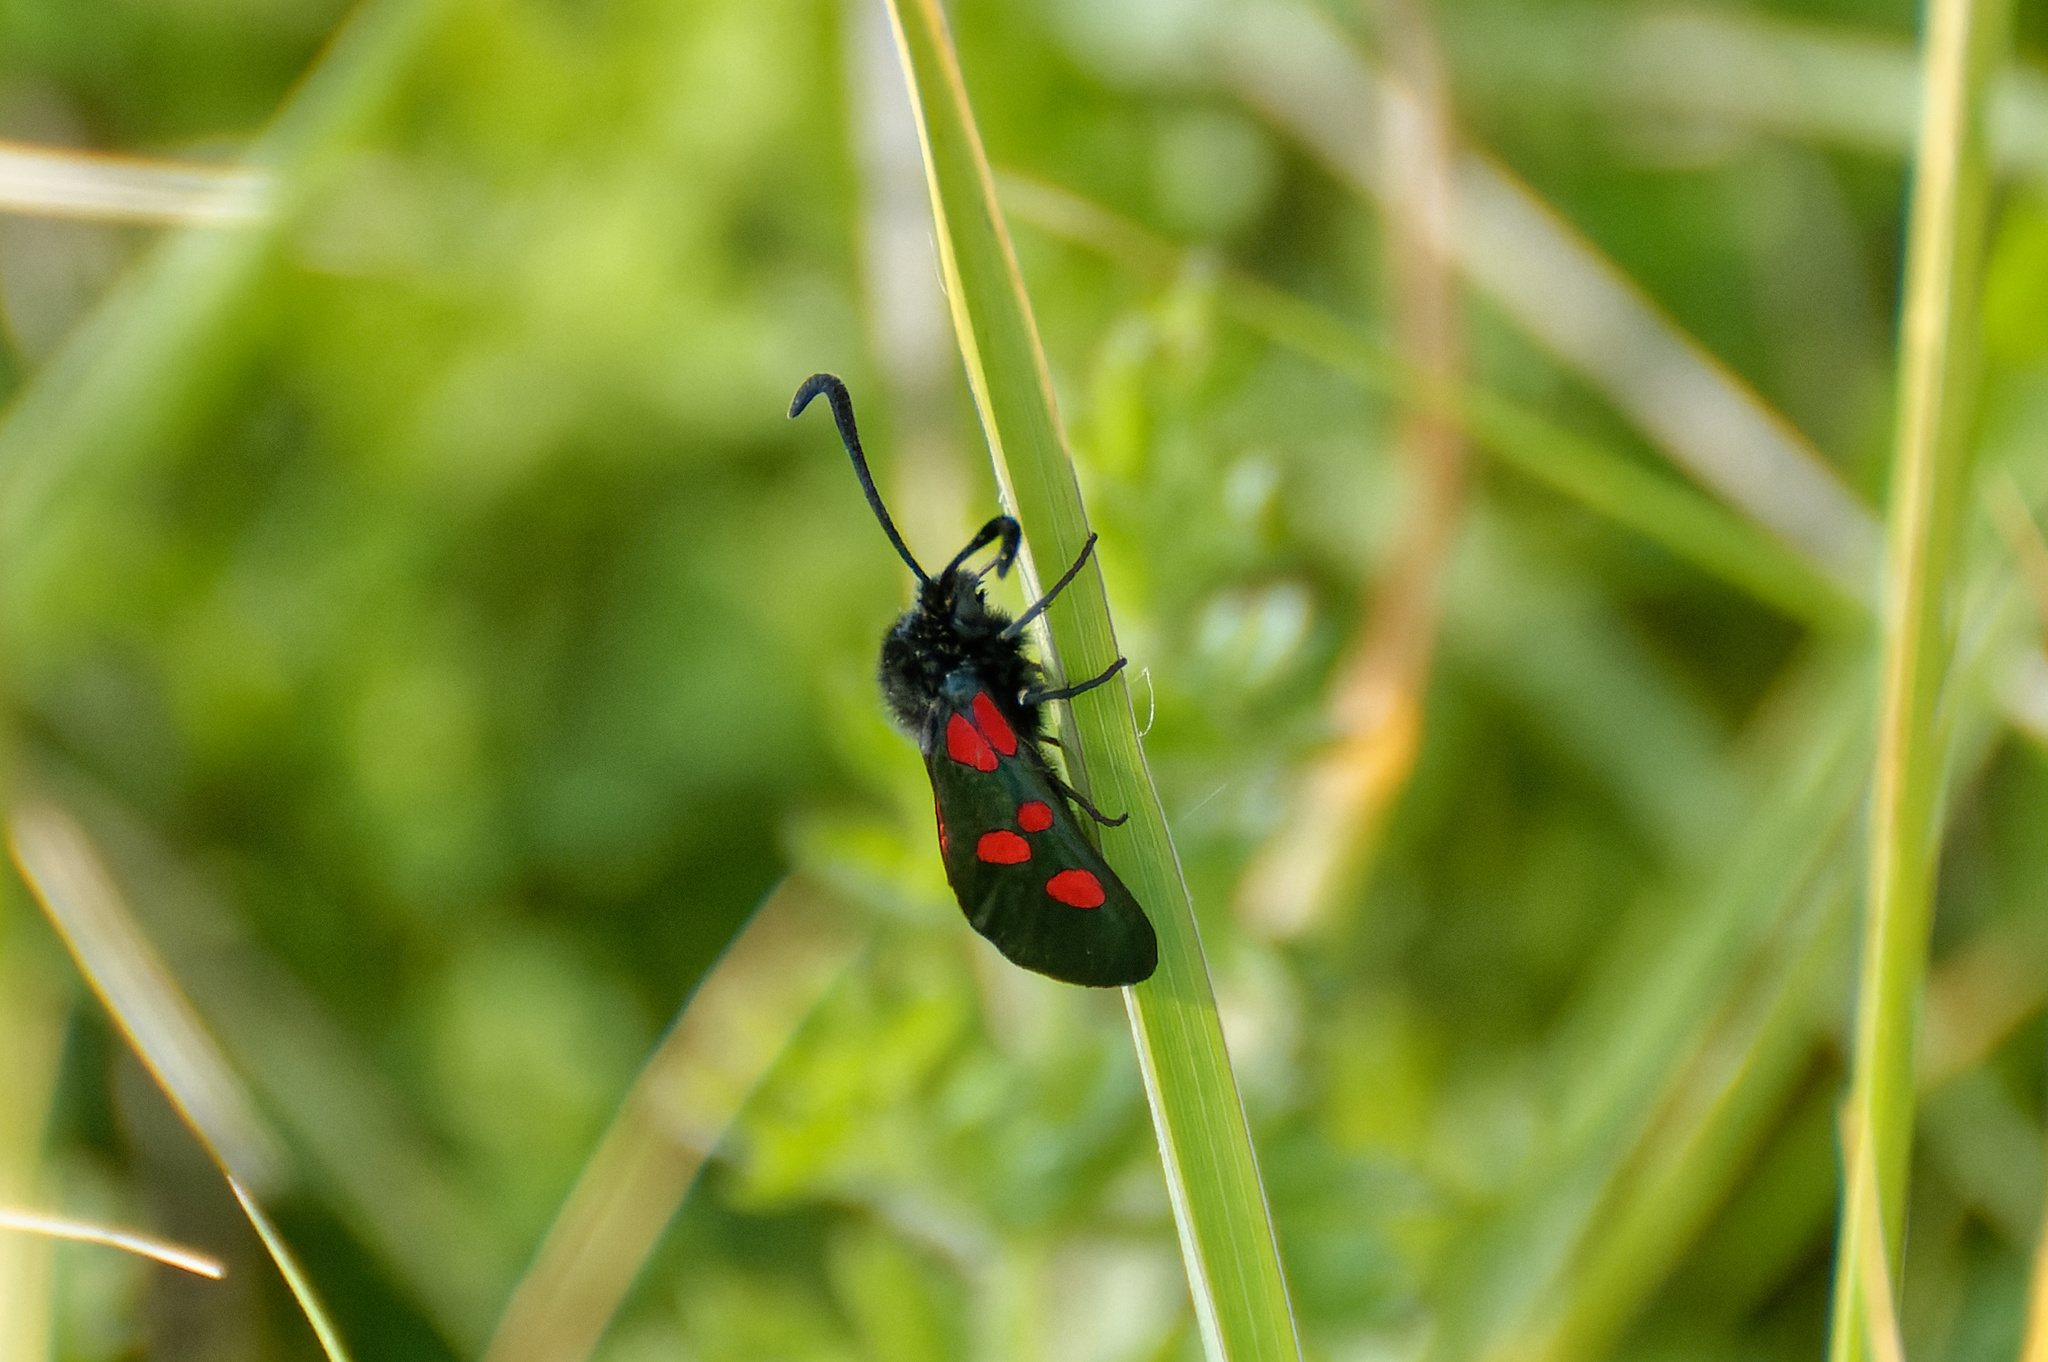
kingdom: Animalia
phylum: Arthropoda
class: Insecta
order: Lepidoptera
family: Zygaenidae
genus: Zygaena
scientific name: Zygaena trifolii
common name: Five-spot burnet
